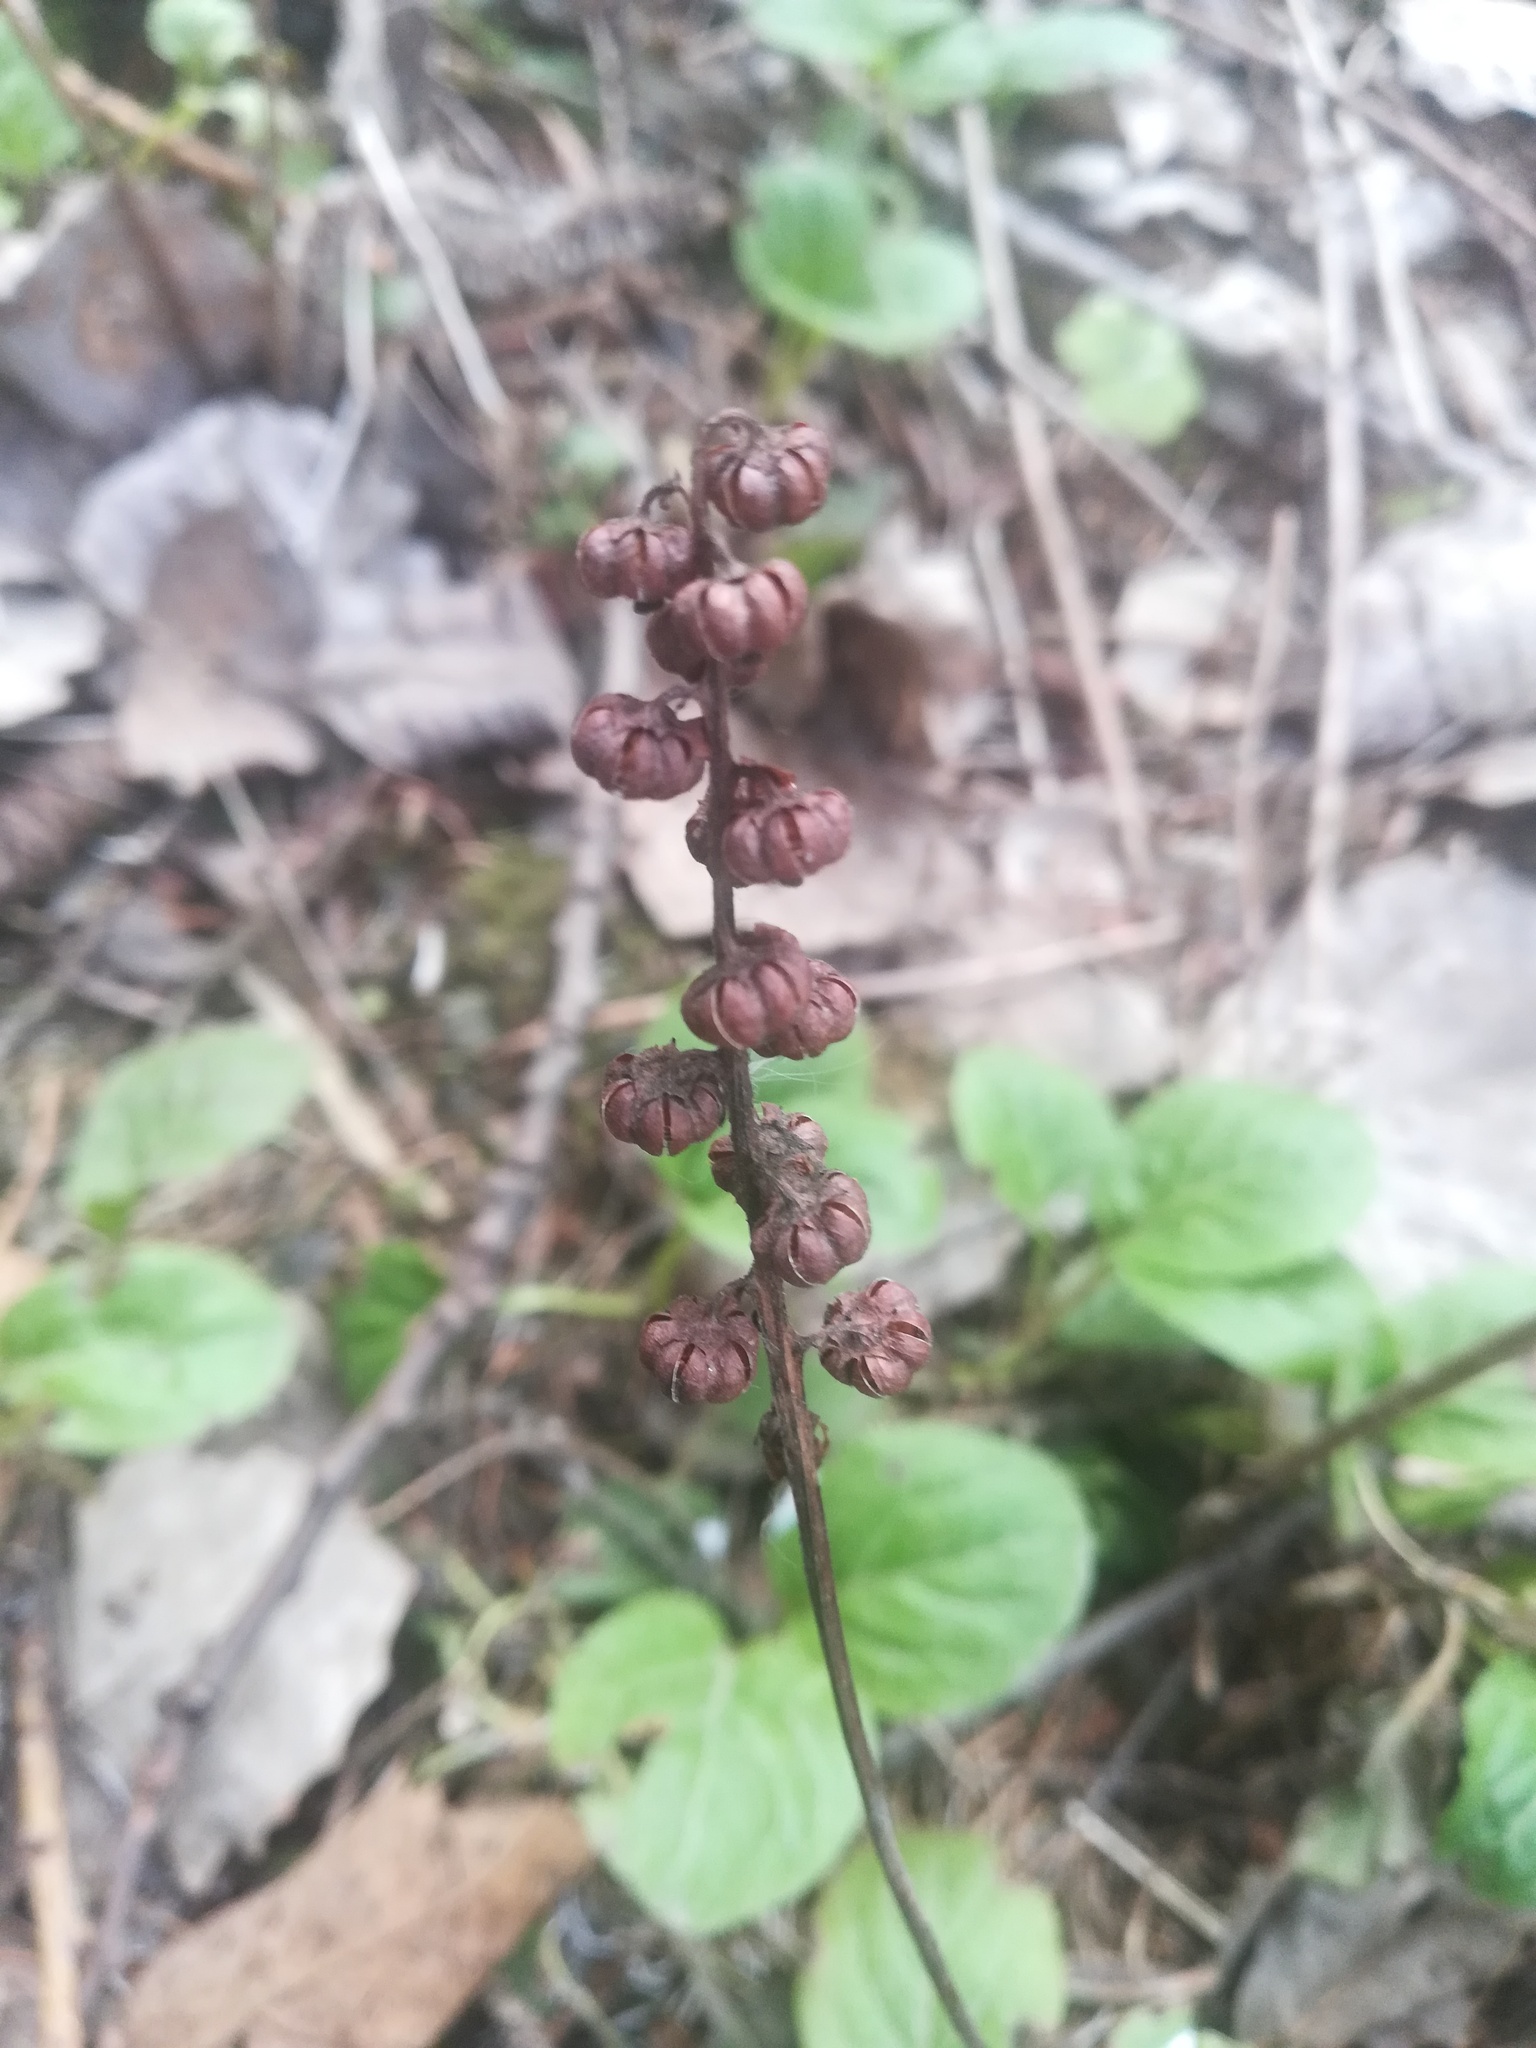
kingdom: Plantae
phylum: Tracheophyta
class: Magnoliopsida
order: Ericales
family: Ericaceae
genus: Pyrola
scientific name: Pyrola minor
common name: Common wintergreen
